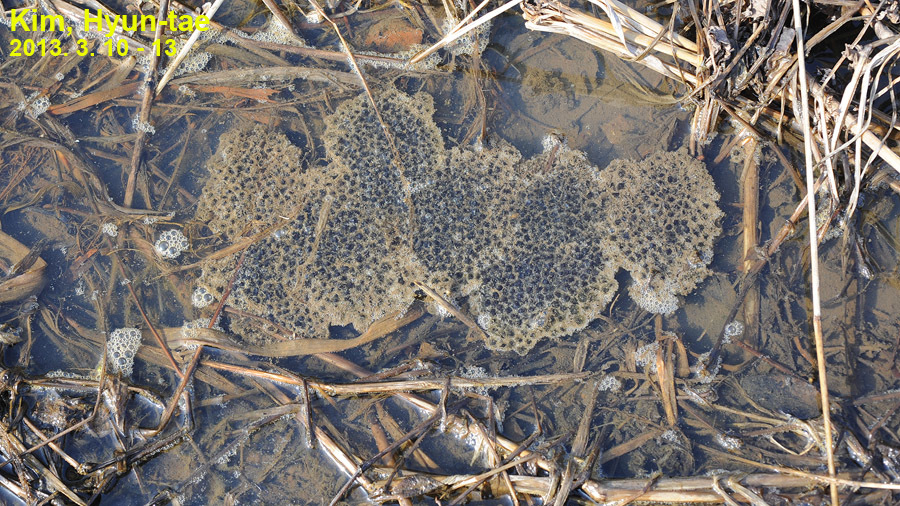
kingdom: Animalia
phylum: Chordata
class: Amphibia
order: Anura
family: Ranidae
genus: Rana
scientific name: Rana coreana
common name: Korean brown frog
